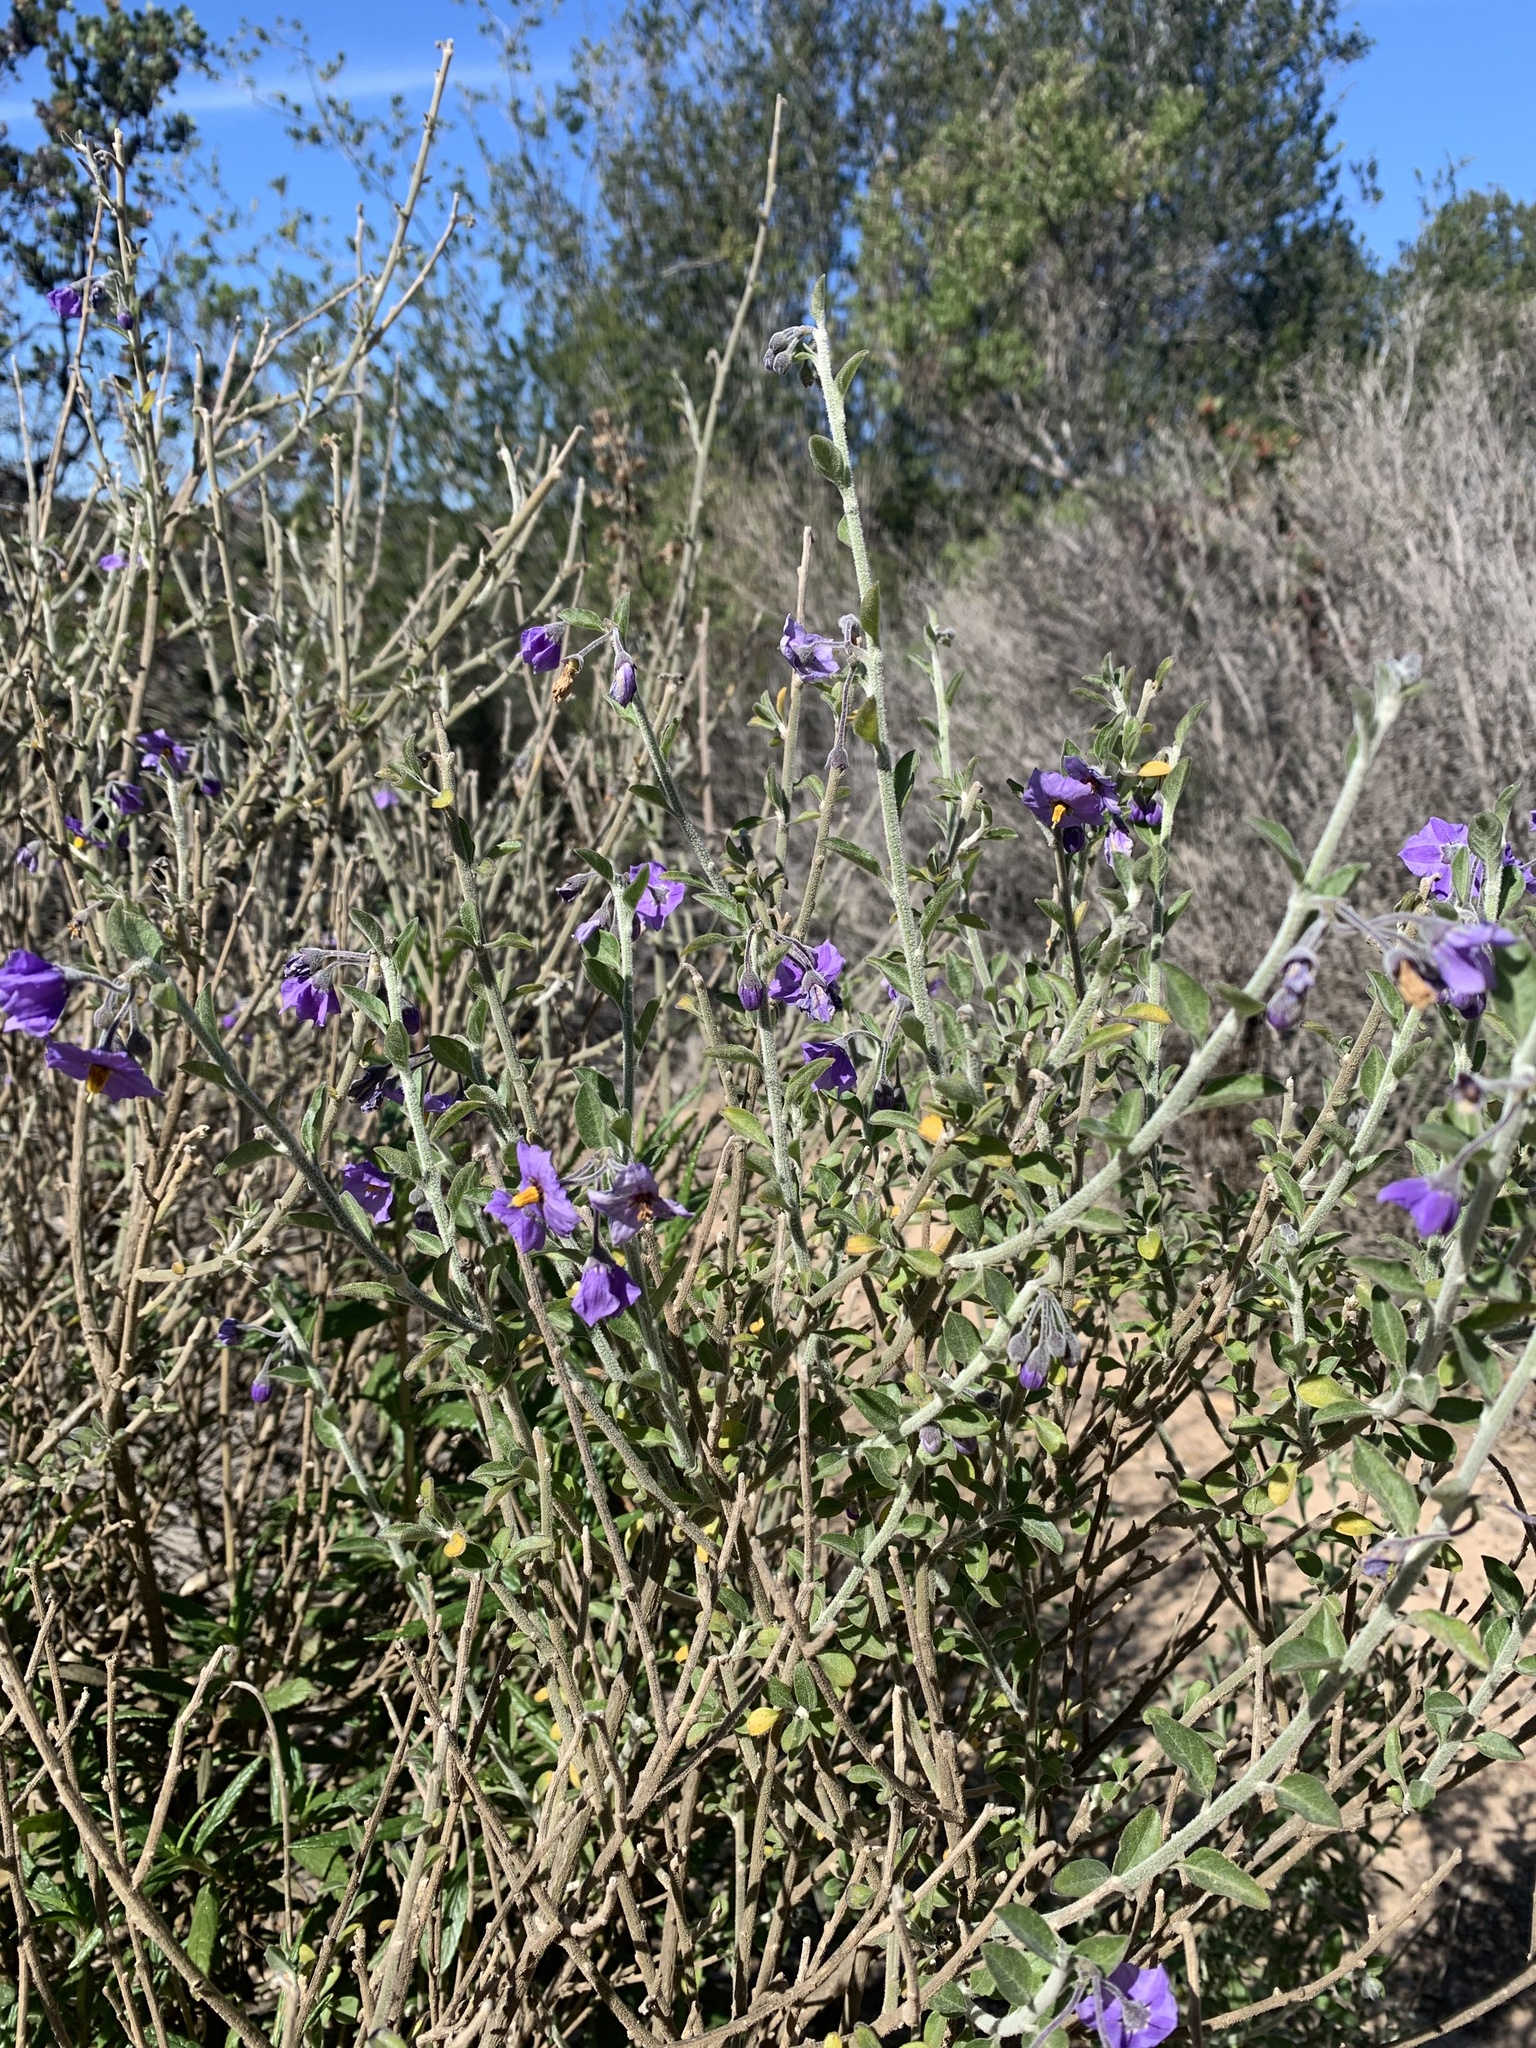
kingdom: Plantae
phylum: Tracheophyta
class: Magnoliopsida
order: Solanales
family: Solanaceae
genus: Solanum
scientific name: Solanum umbelliferum
